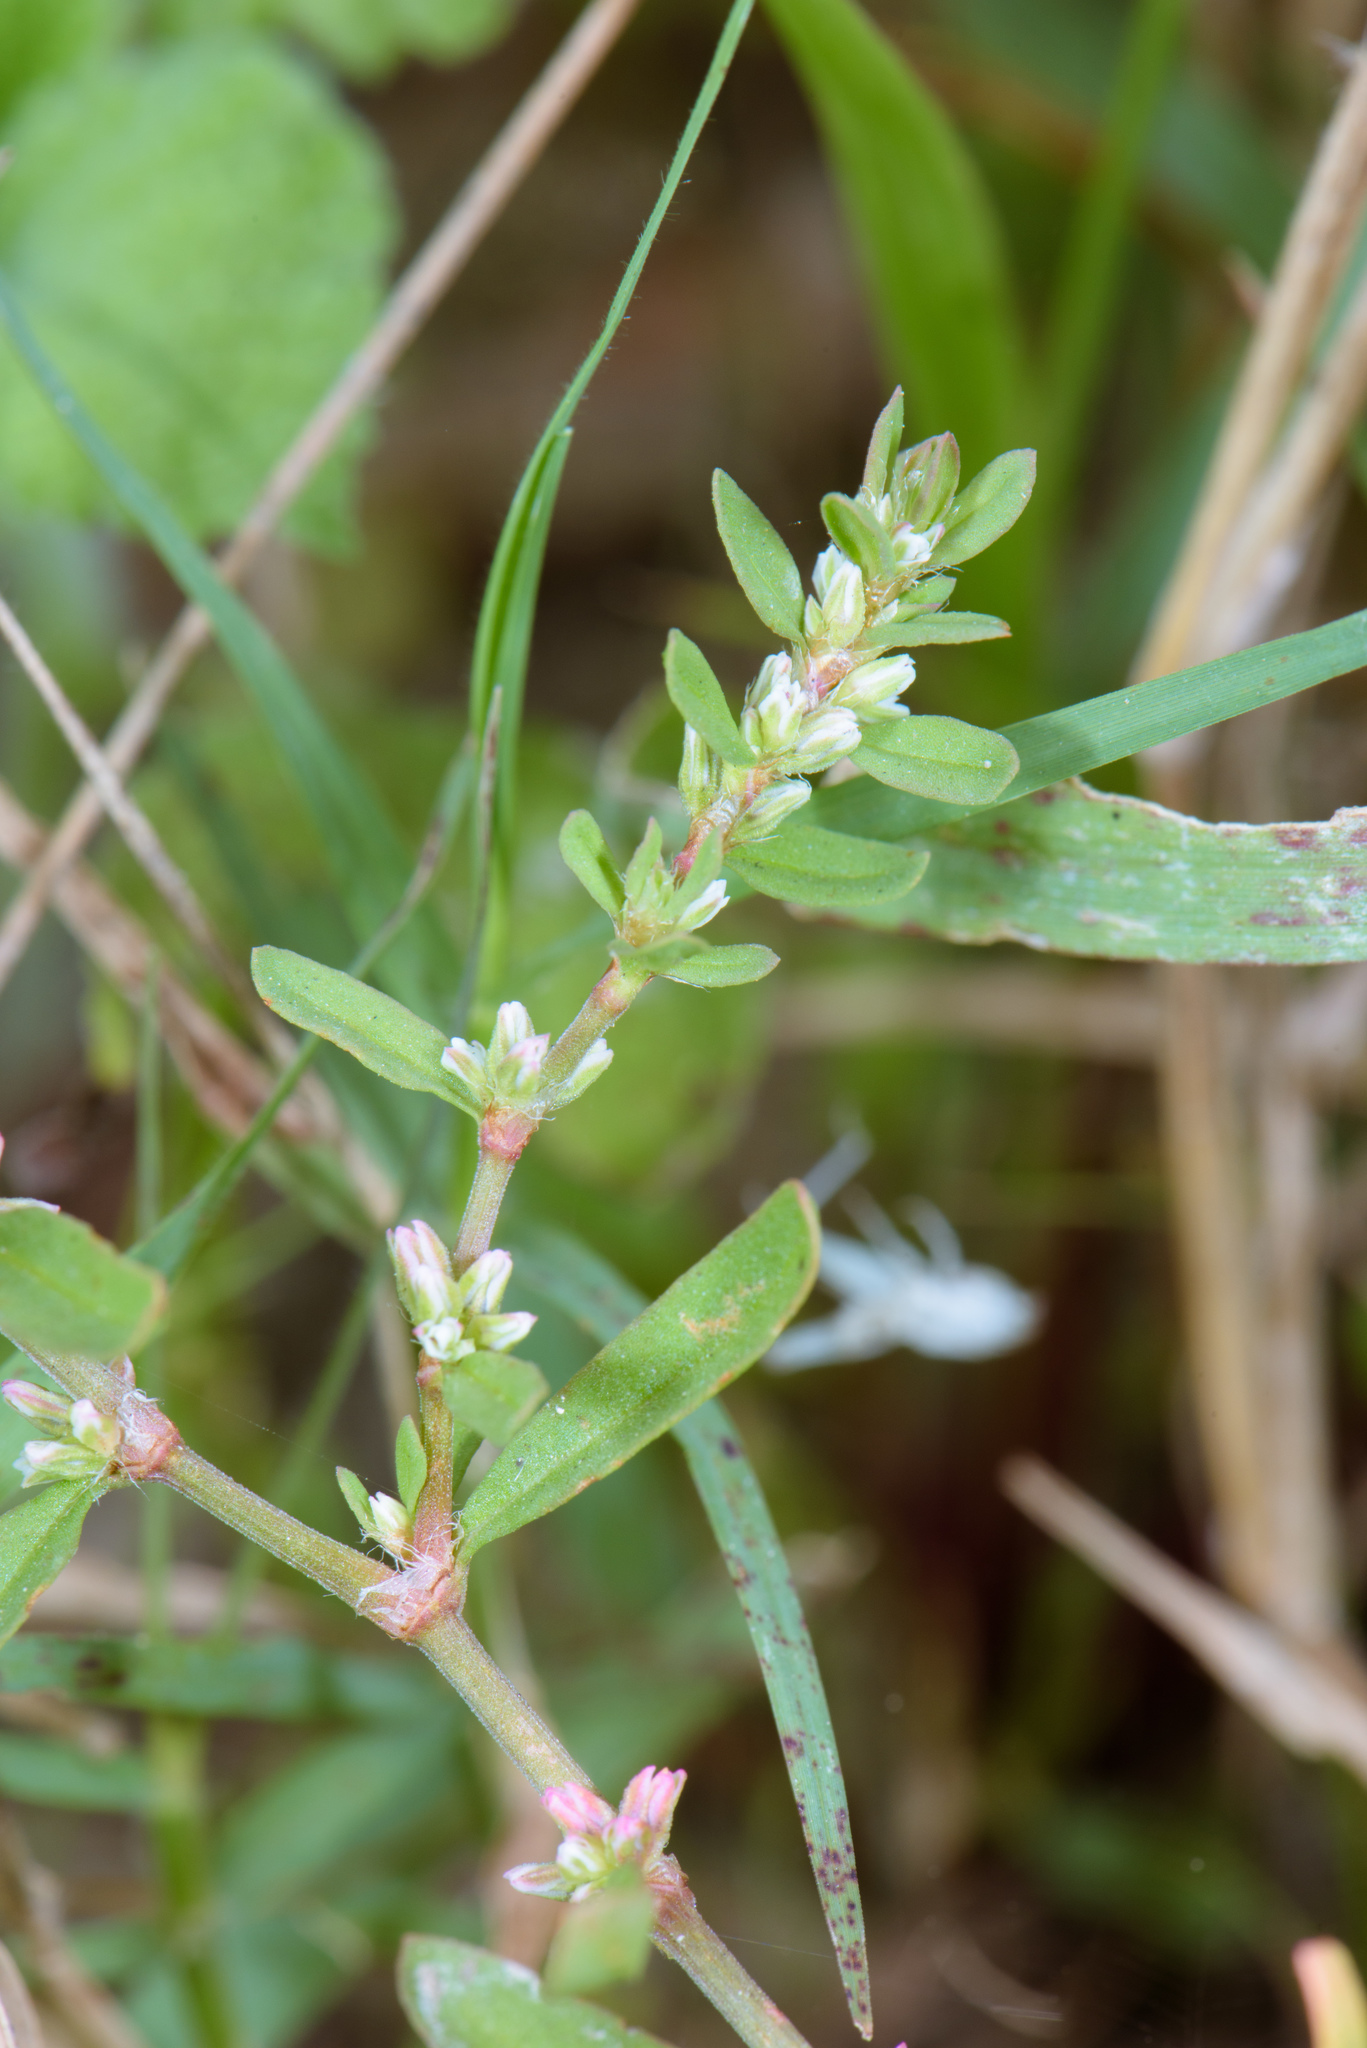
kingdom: Plantae
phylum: Tracheophyta
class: Magnoliopsida
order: Caryophyllales
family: Polygonaceae
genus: Polygonum
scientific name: Polygonum plebeium
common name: Common knotweed
